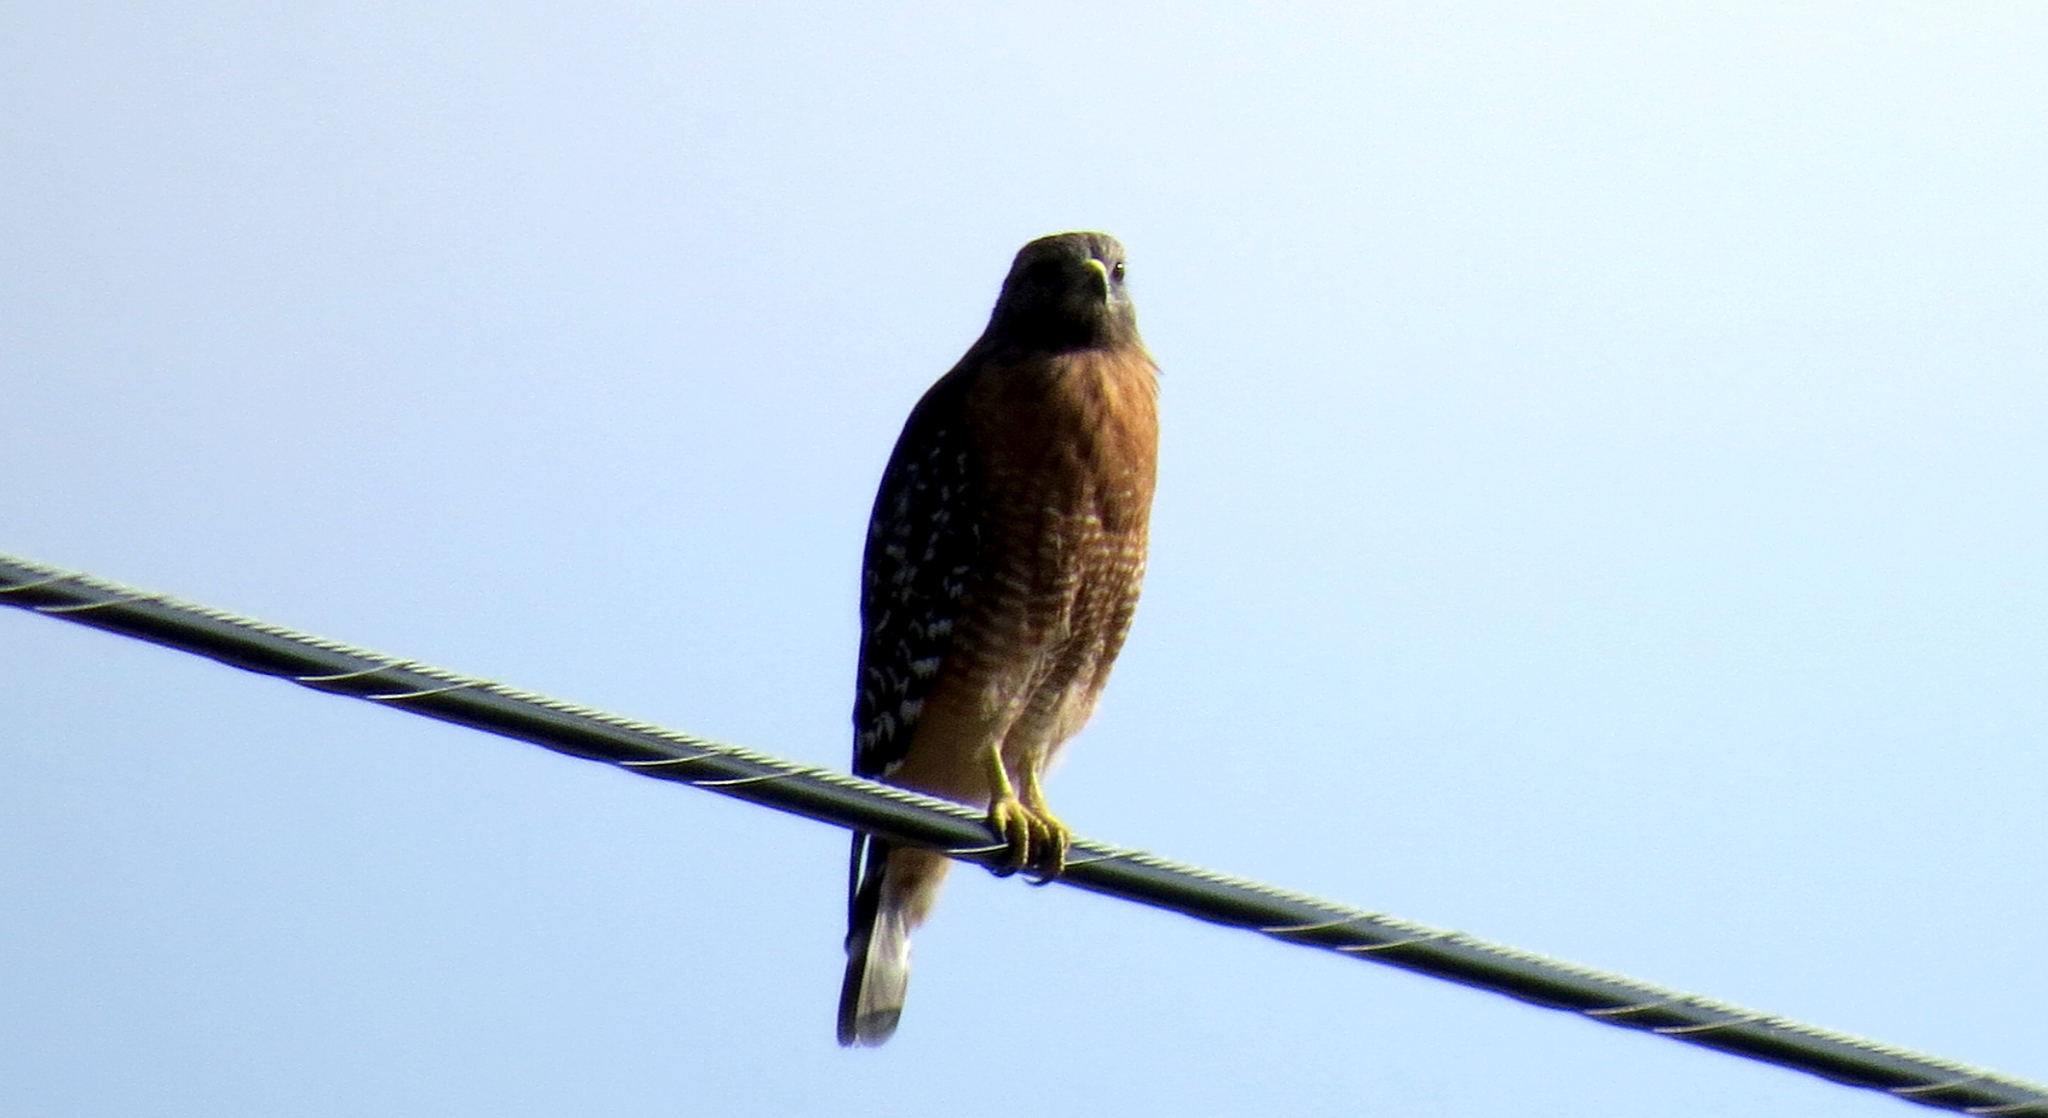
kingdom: Animalia
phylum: Chordata
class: Aves
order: Accipitriformes
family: Accipitridae
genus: Buteo
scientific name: Buteo lineatus
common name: Red-shouldered hawk
